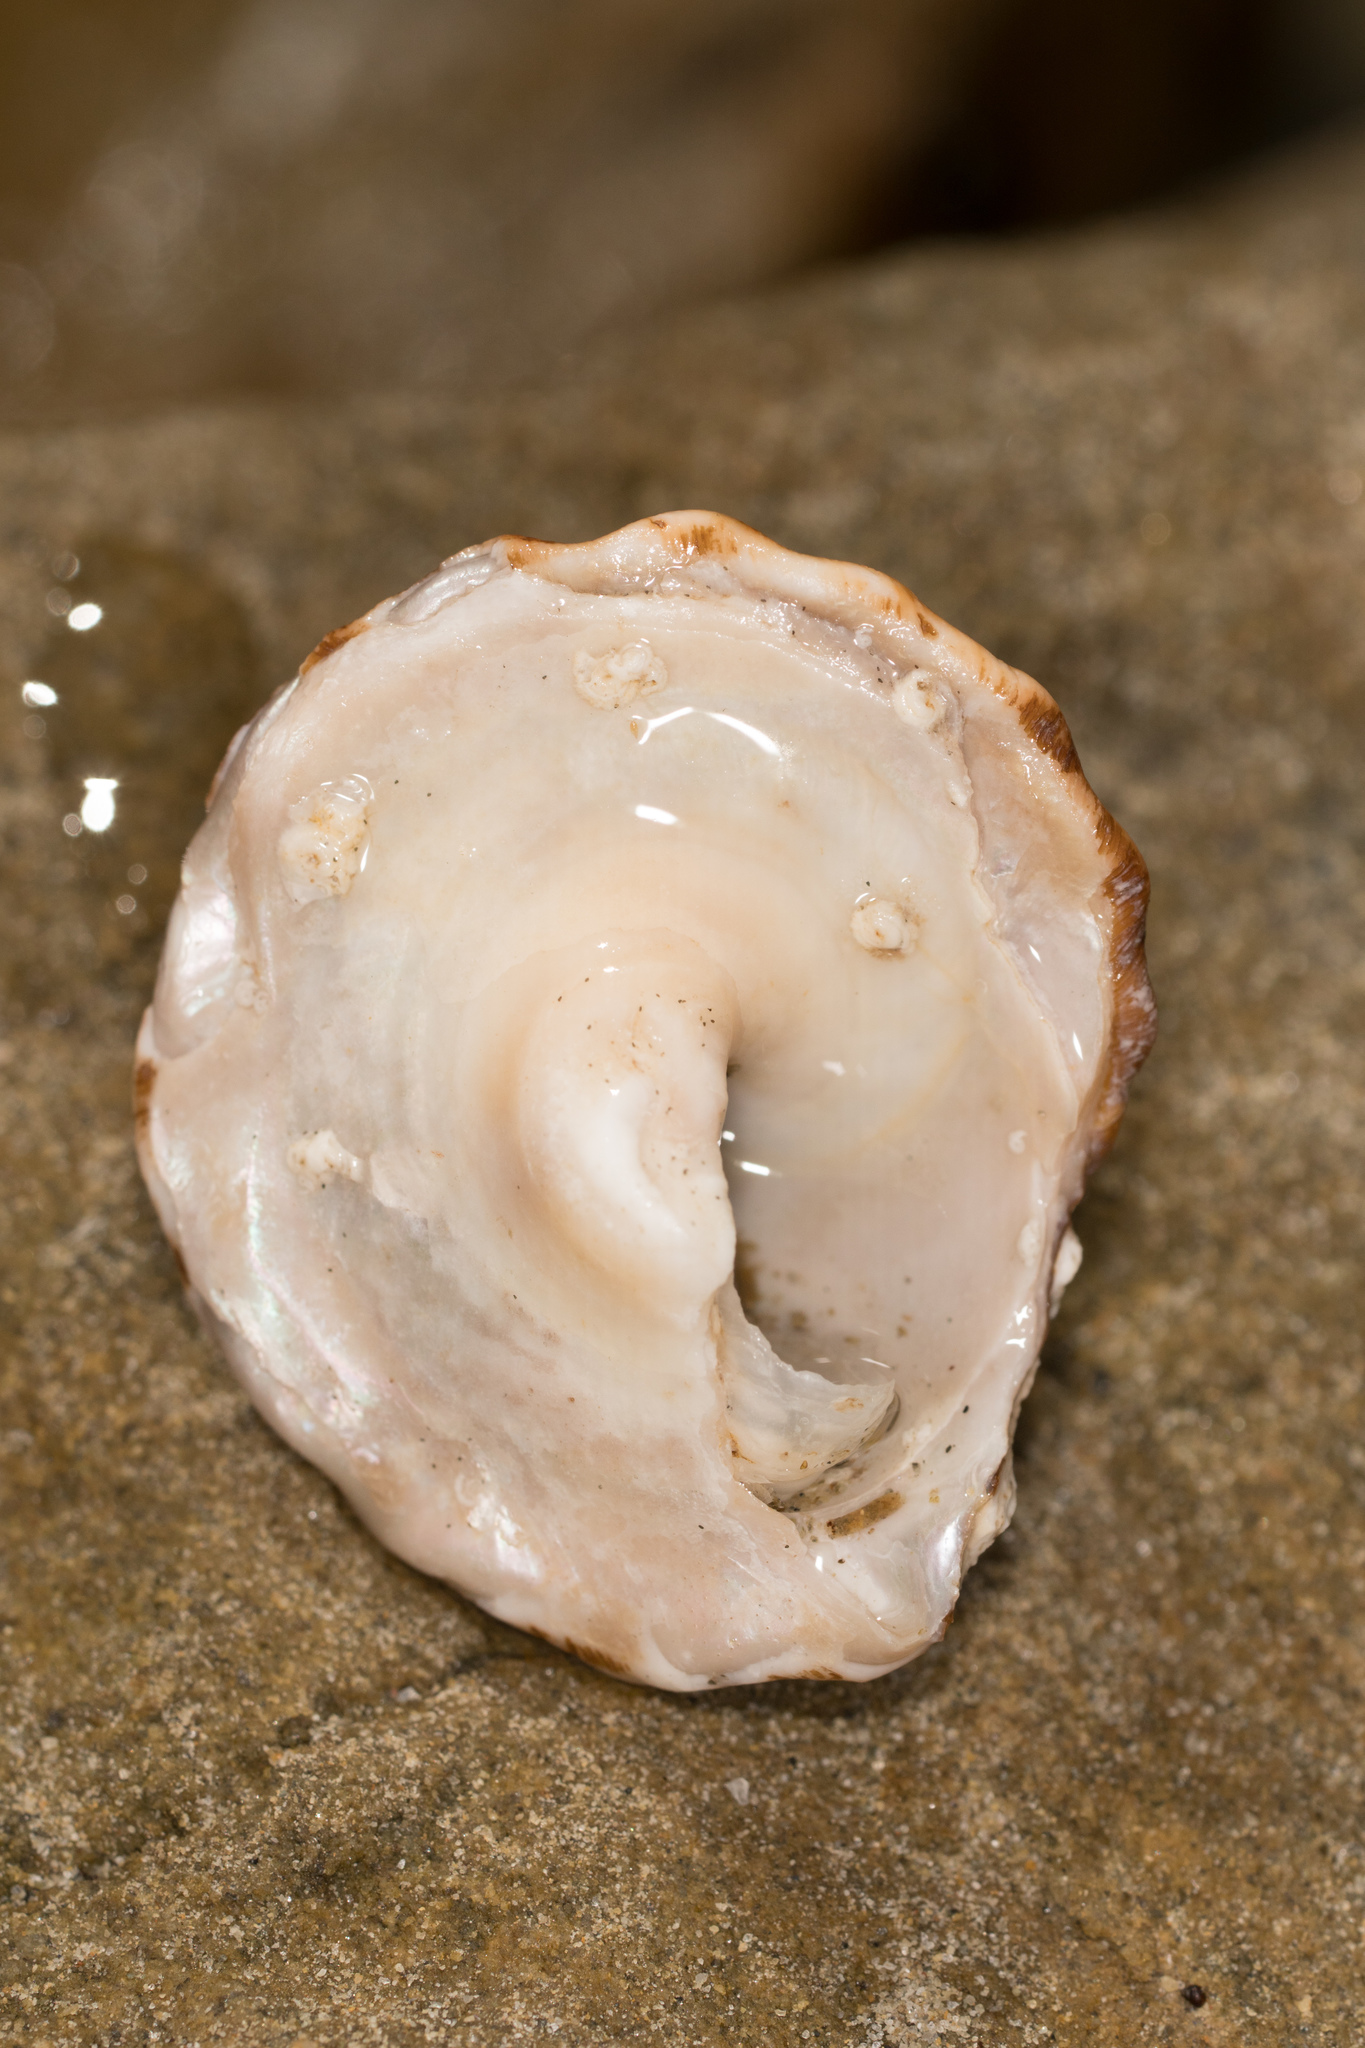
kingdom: Animalia
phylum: Mollusca
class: Gastropoda
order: Trochida
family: Turbinidae
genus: Megastraea
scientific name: Megastraea undosa
